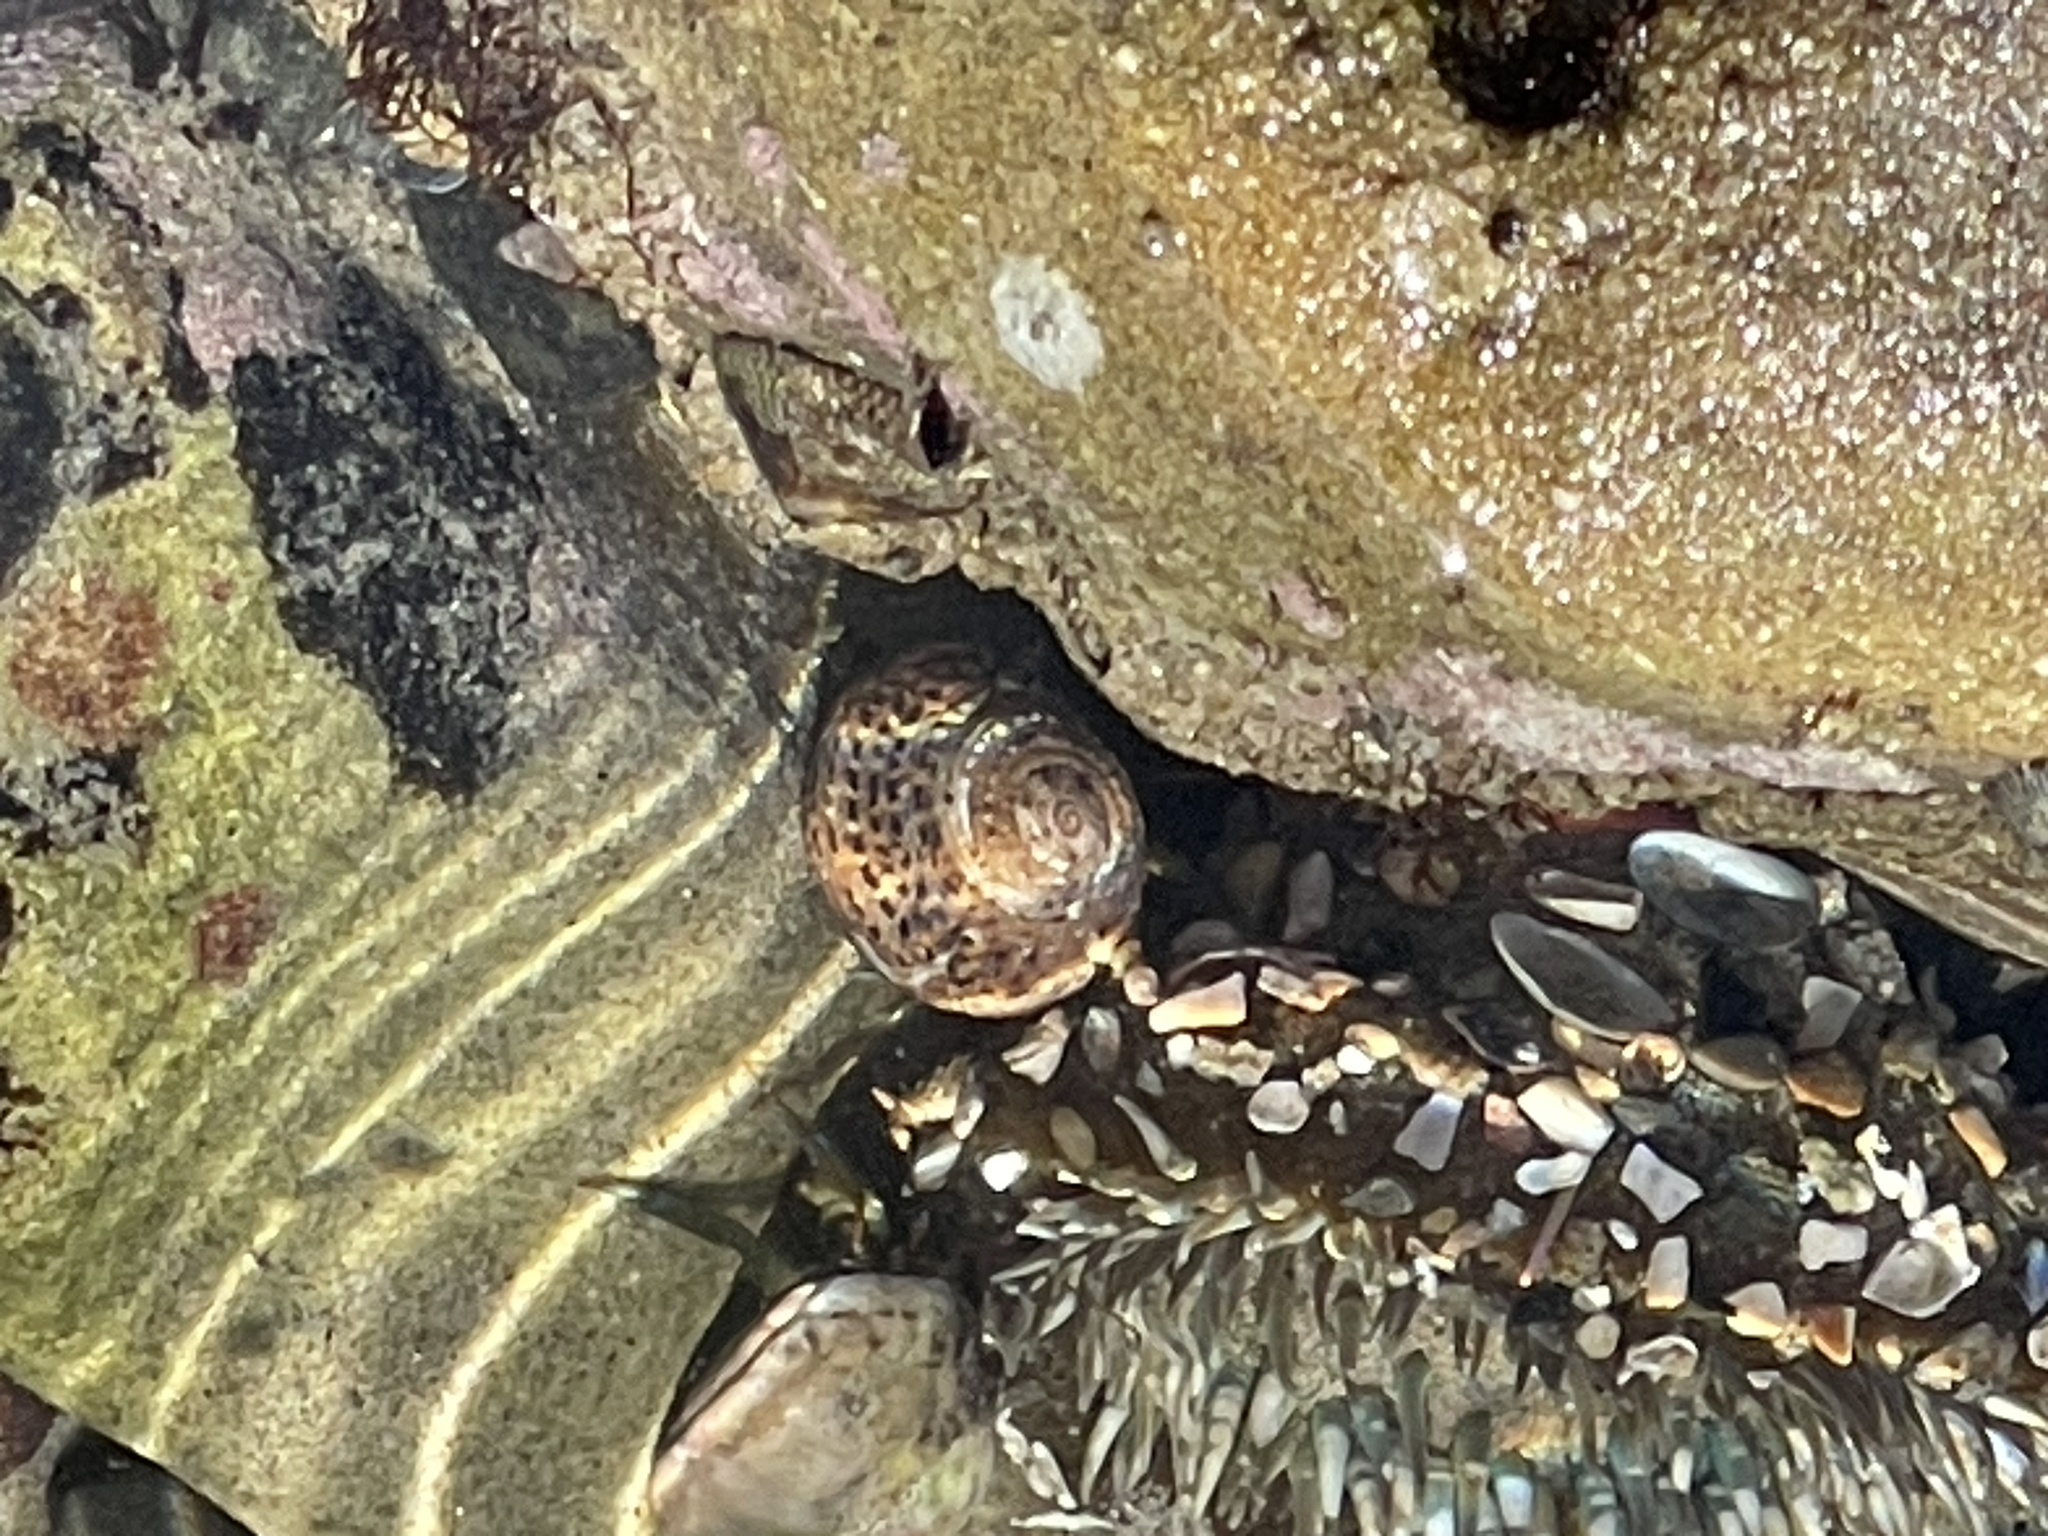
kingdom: Animalia
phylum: Mollusca
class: Gastropoda
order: Trochida
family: Tegulidae
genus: Tegula
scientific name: Tegula eiseni
